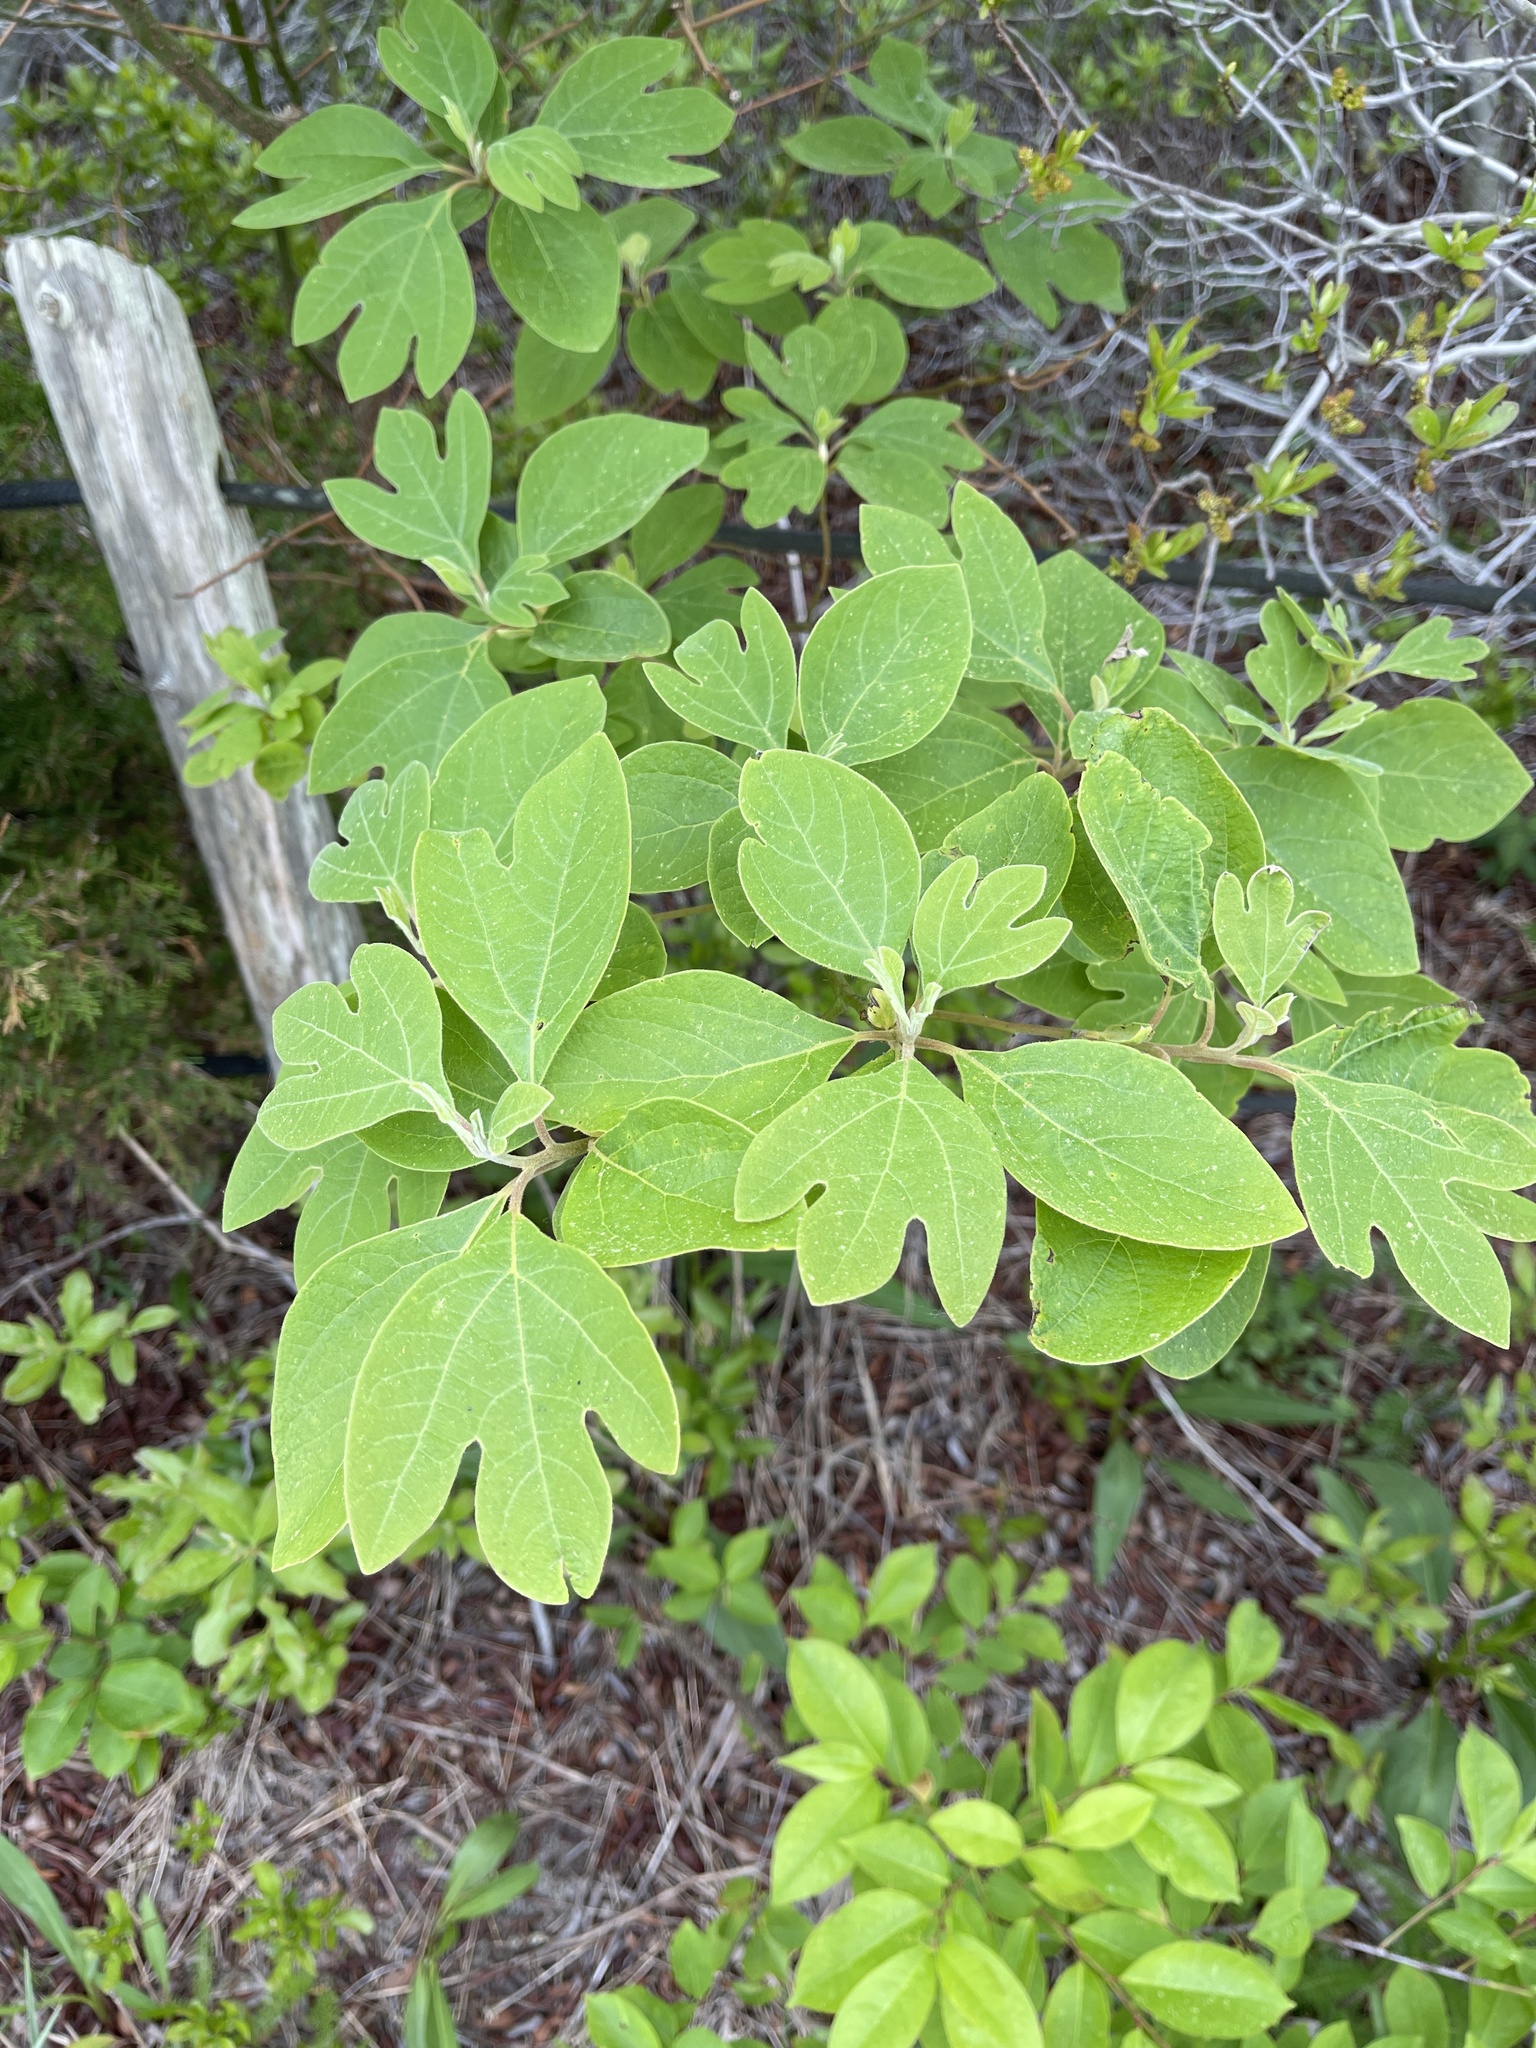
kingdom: Plantae
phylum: Tracheophyta
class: Magnoliopsida
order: Laurales
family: Lauraceae
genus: Sassafras
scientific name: Sassafras albidum
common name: Sassafras
